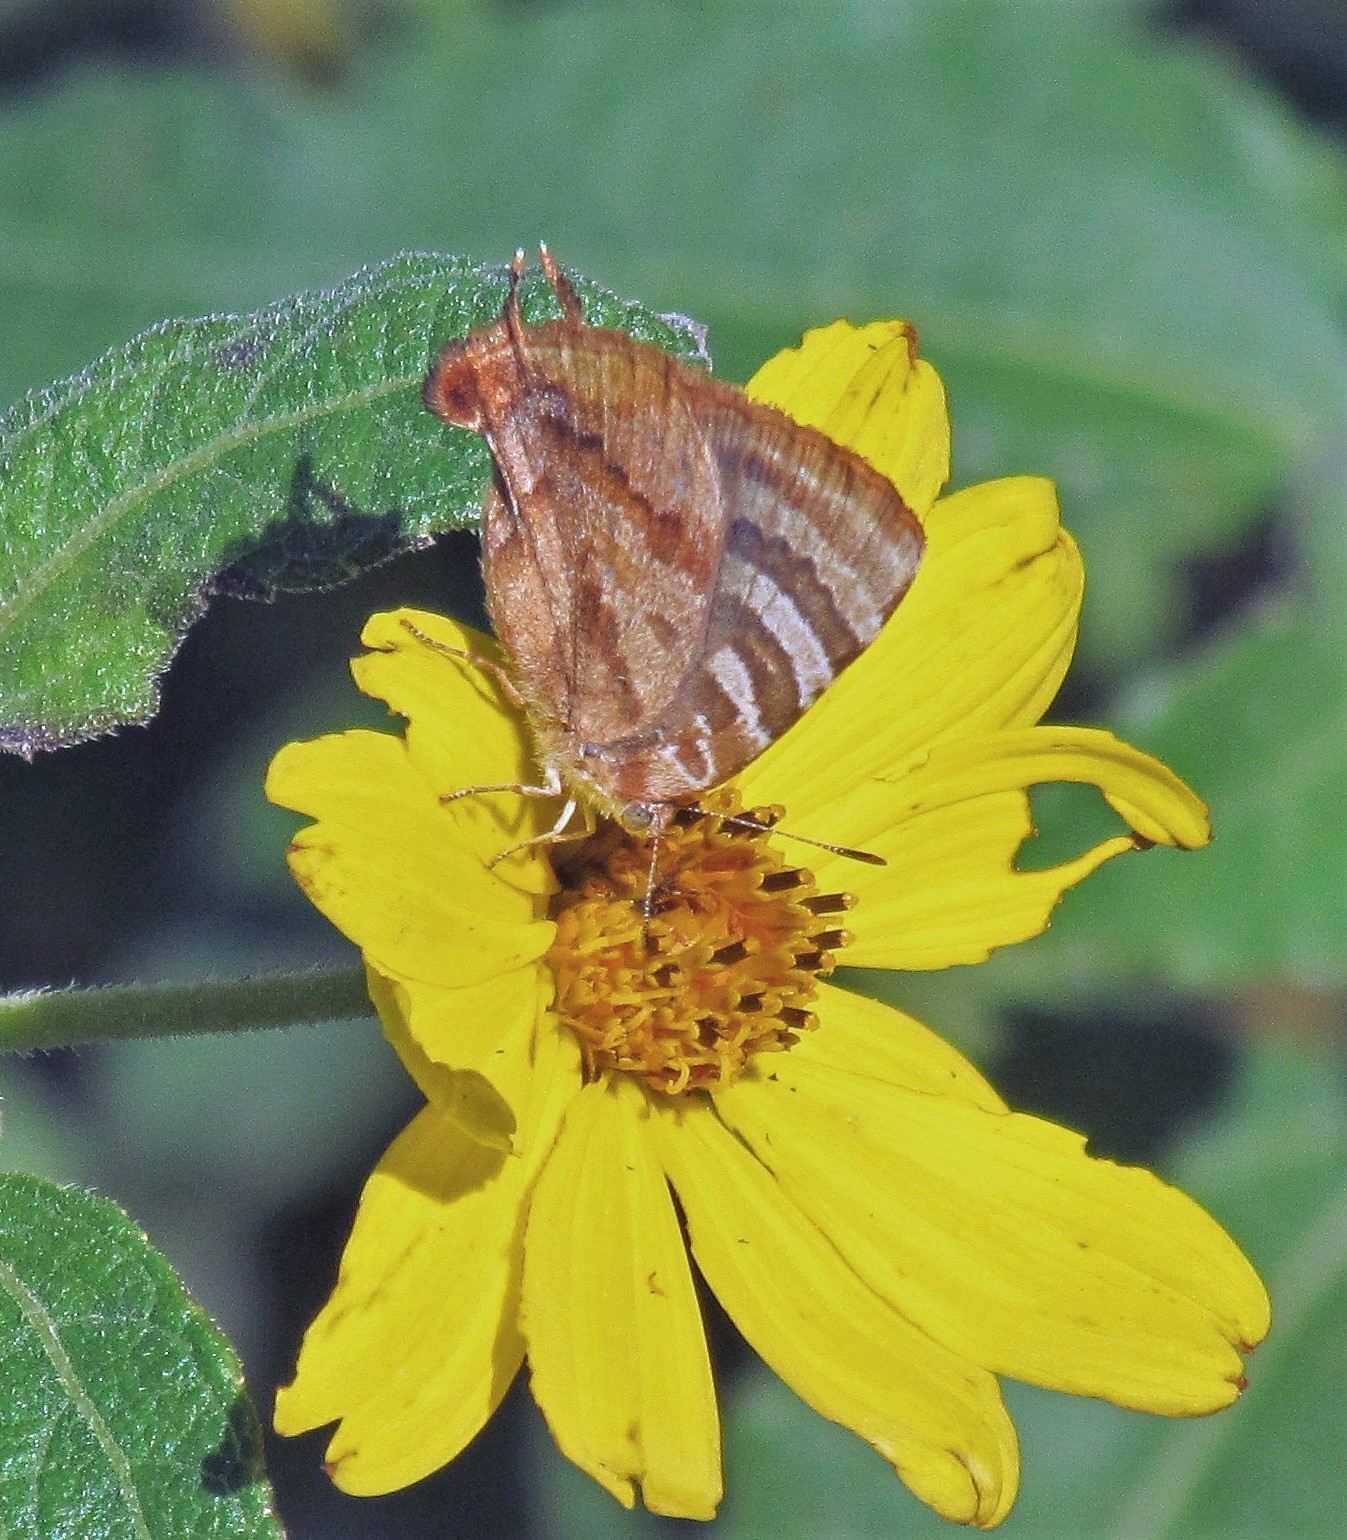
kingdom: Animalia
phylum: Arthropoda
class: Insecta
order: Lepidoptera
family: Lycaenidae
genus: Arawacus
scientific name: Arawacus ellida
